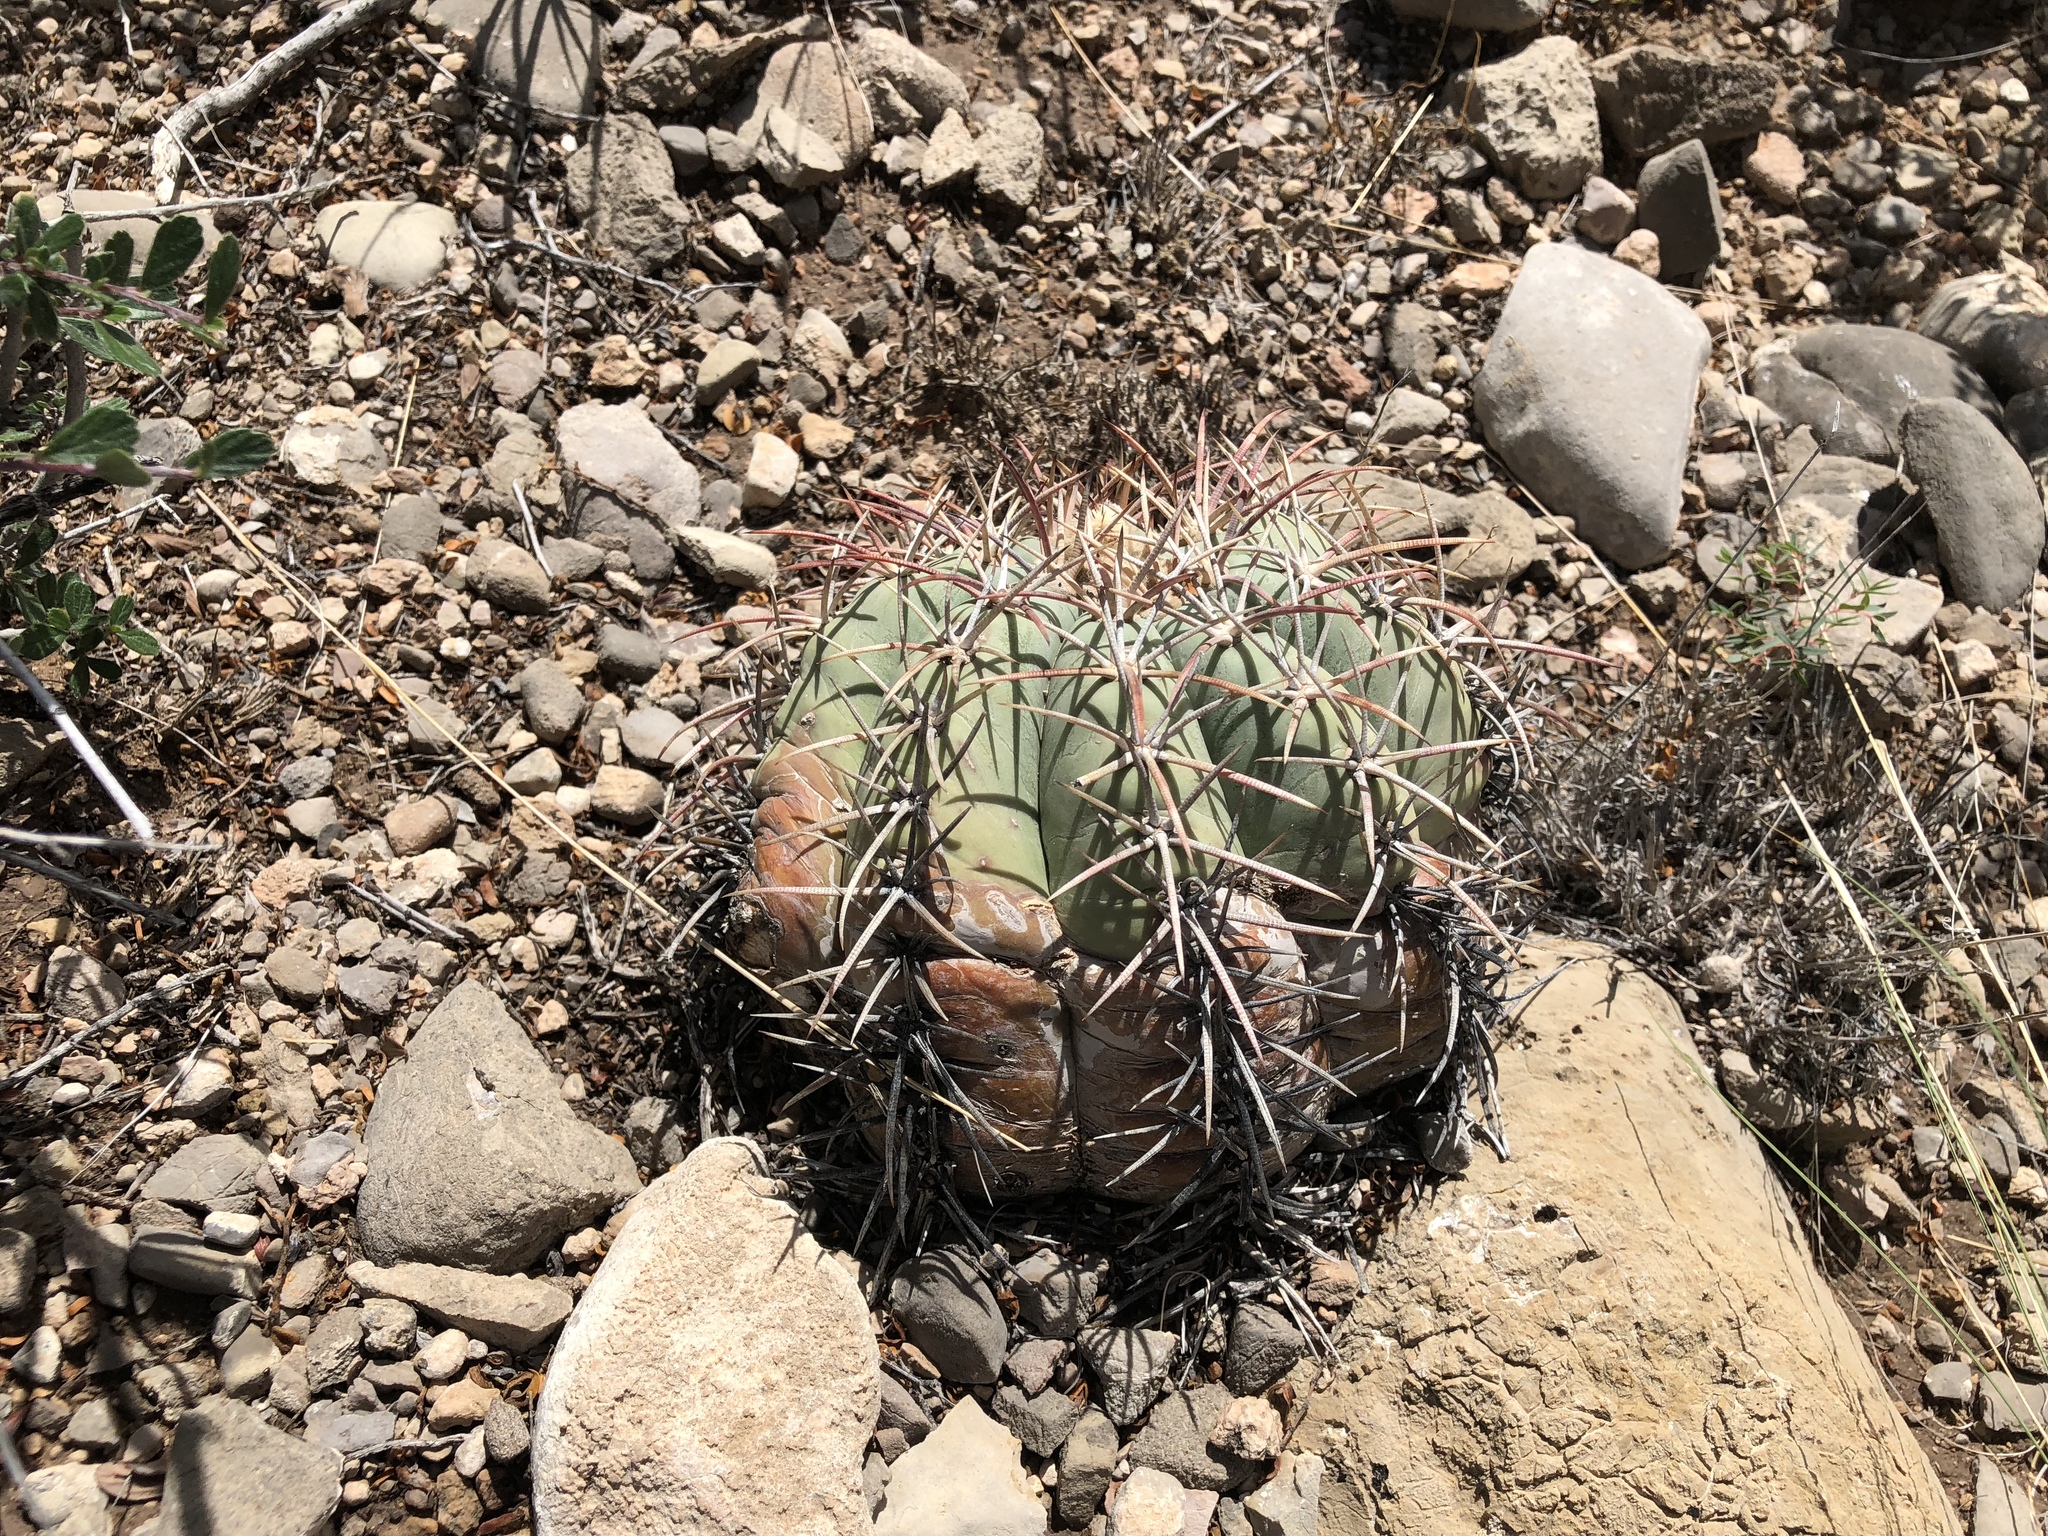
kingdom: Plantae
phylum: Tracheophyta
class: Magnoliopsida
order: Caryophyllales
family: Cactaceae
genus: Echinocactus
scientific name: Echinocactus horizonthalonius
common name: Devilshead
